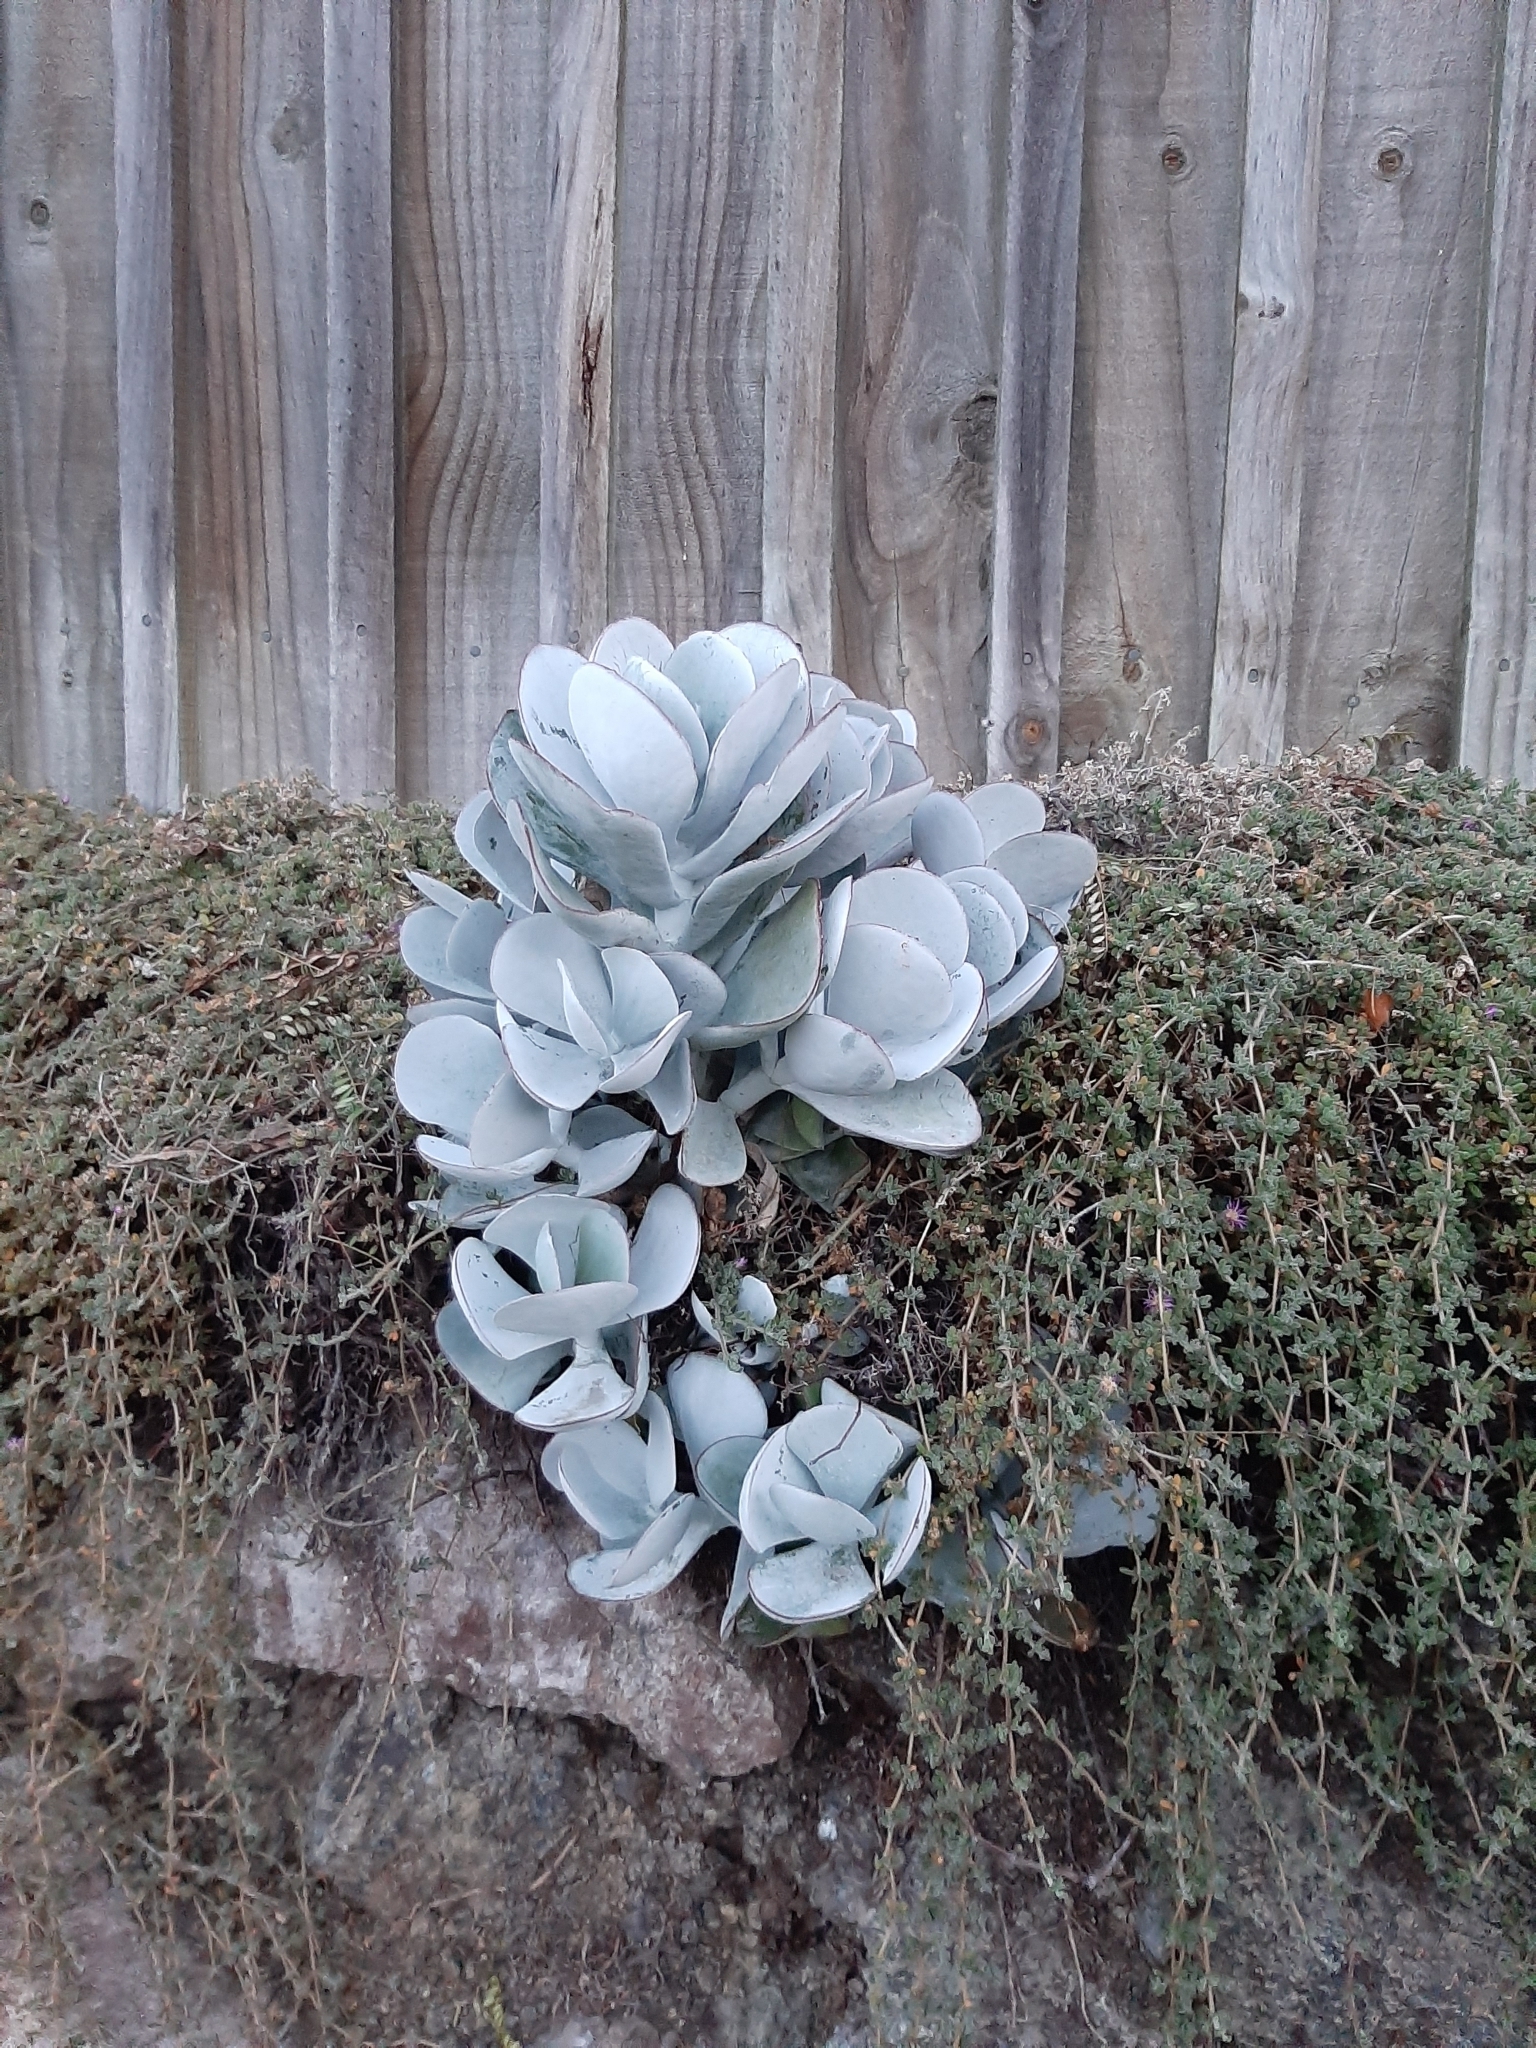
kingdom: Plantae
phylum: Tracheophyta
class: Magnoliopsida
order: Saxifragales
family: Crassulaceae
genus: Cotyledon
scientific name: Cotyledon orbiculata
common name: Pig's ear
